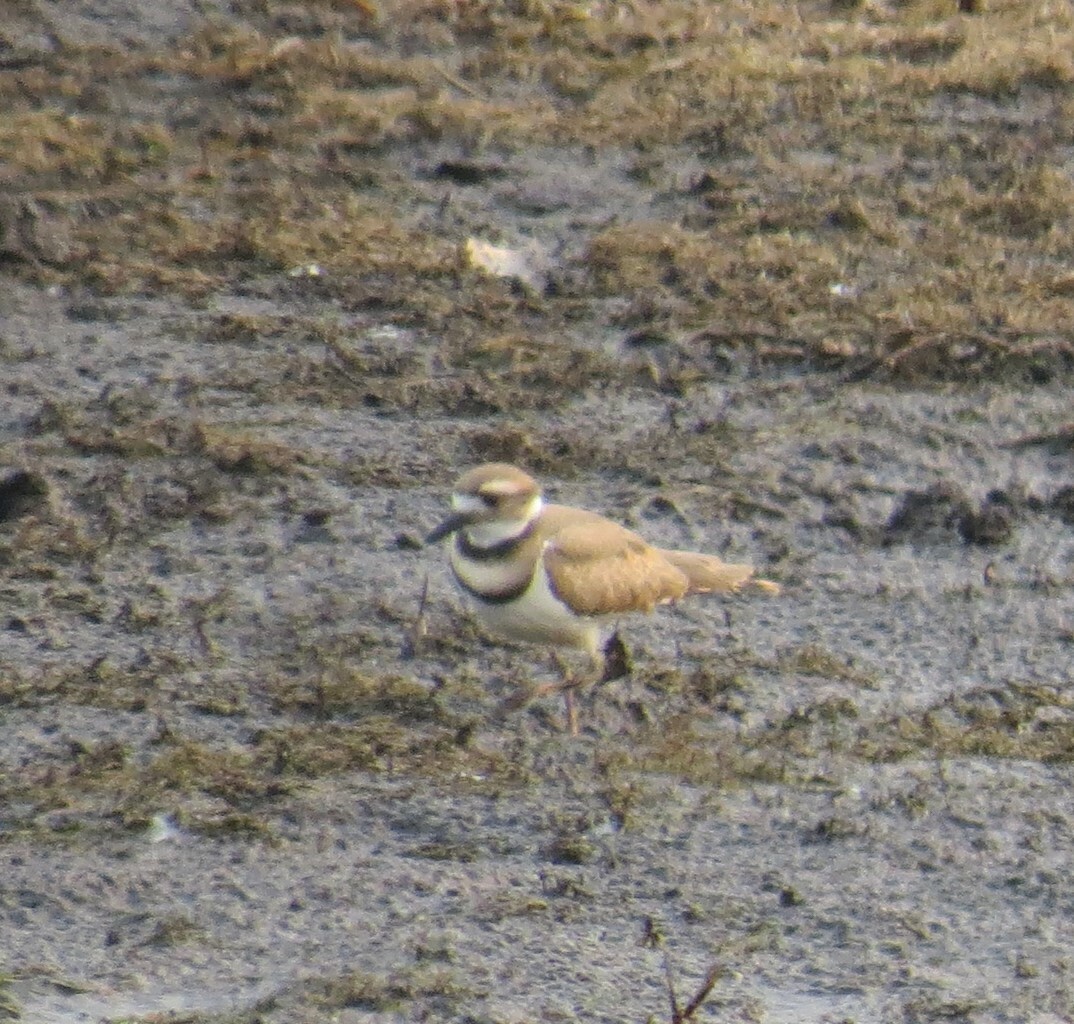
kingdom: Animalia
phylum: Chordata
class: Aves
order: Charadriiformes
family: Charadriidae
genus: Charadrius
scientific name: Charadrius vociferus
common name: Killdeer
